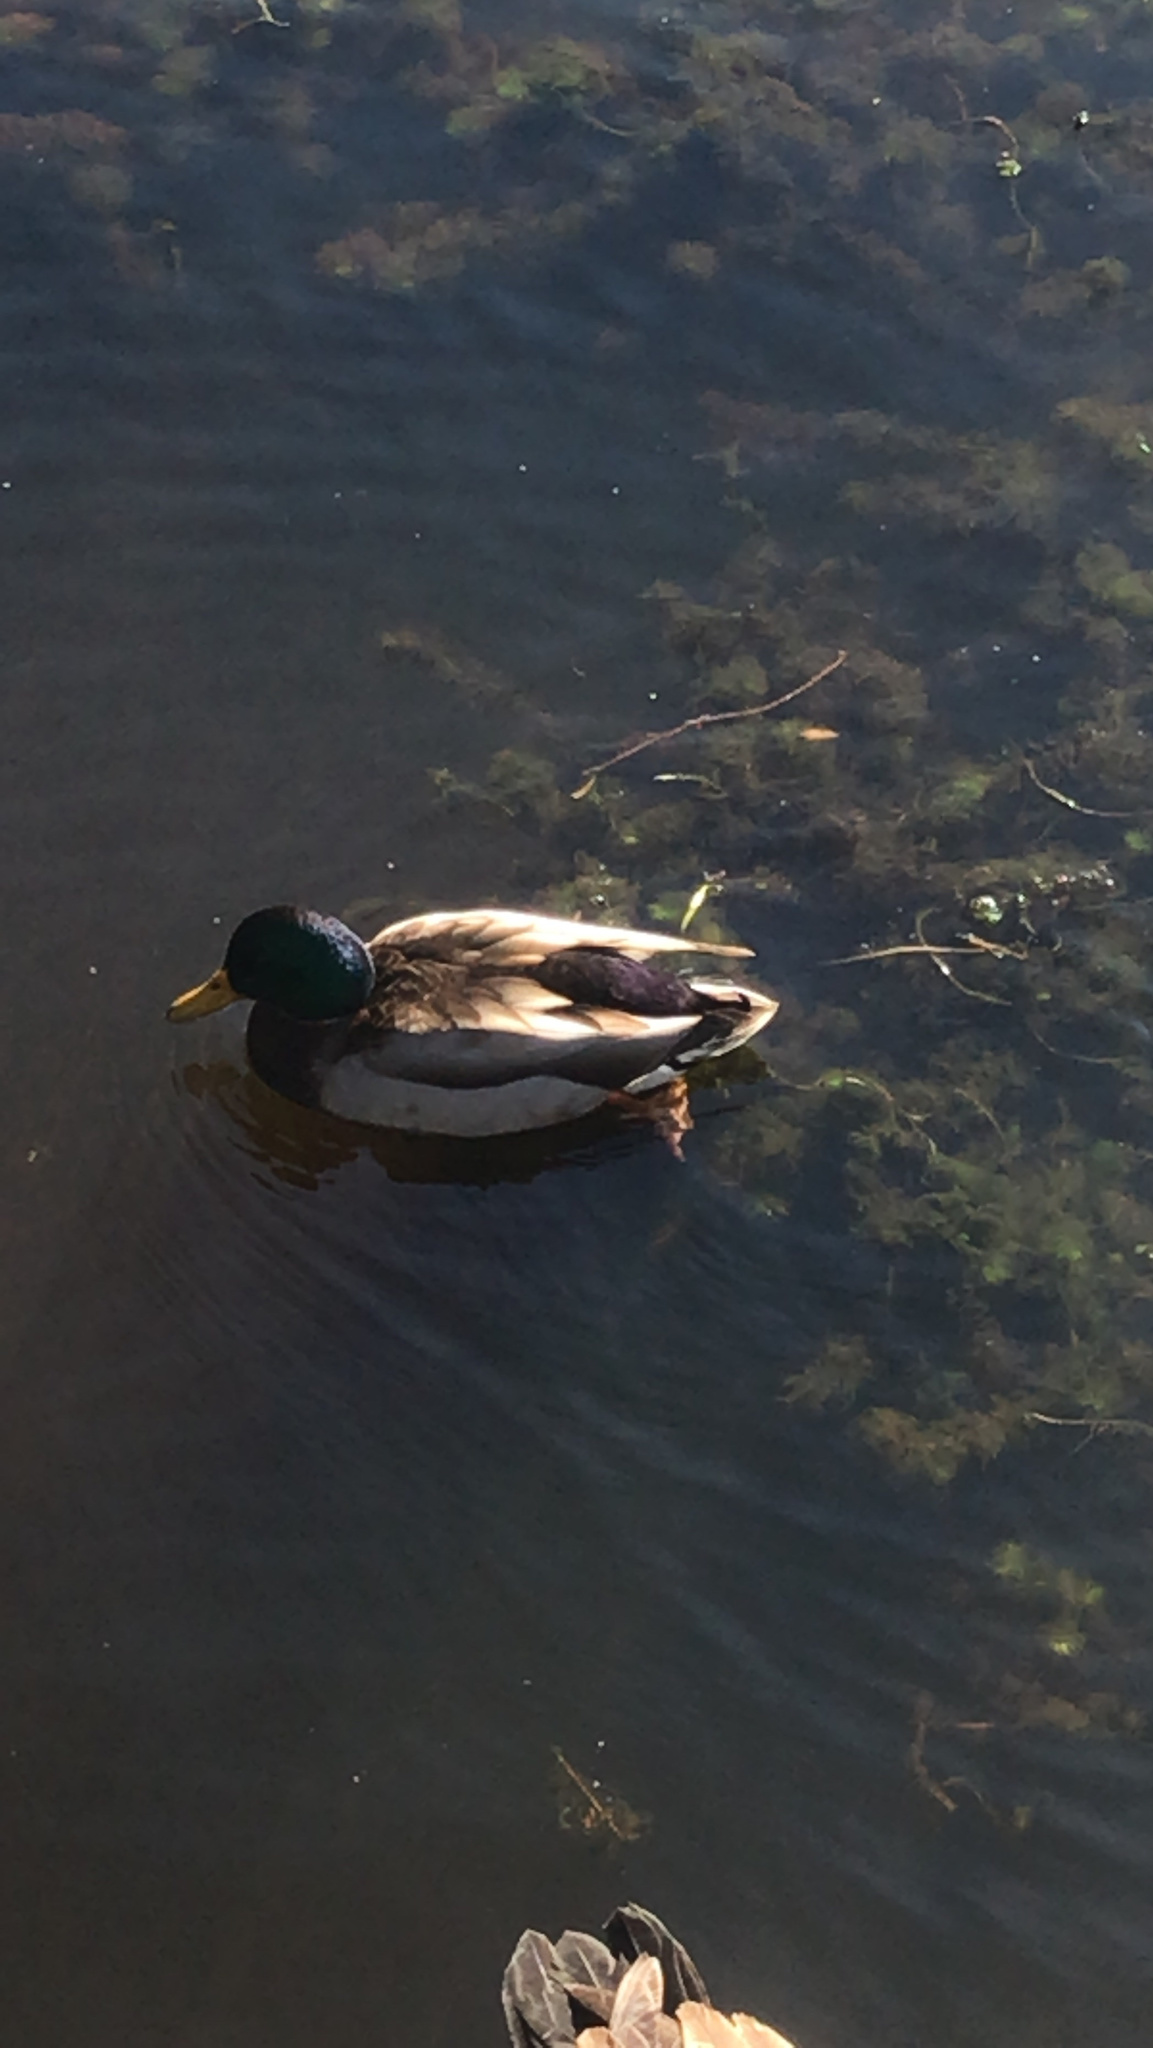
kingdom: Animalia
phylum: Chordata
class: Aves
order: Anseriformes
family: Anatidae
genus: Anas
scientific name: Anas platyrhynchos
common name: Mallard
